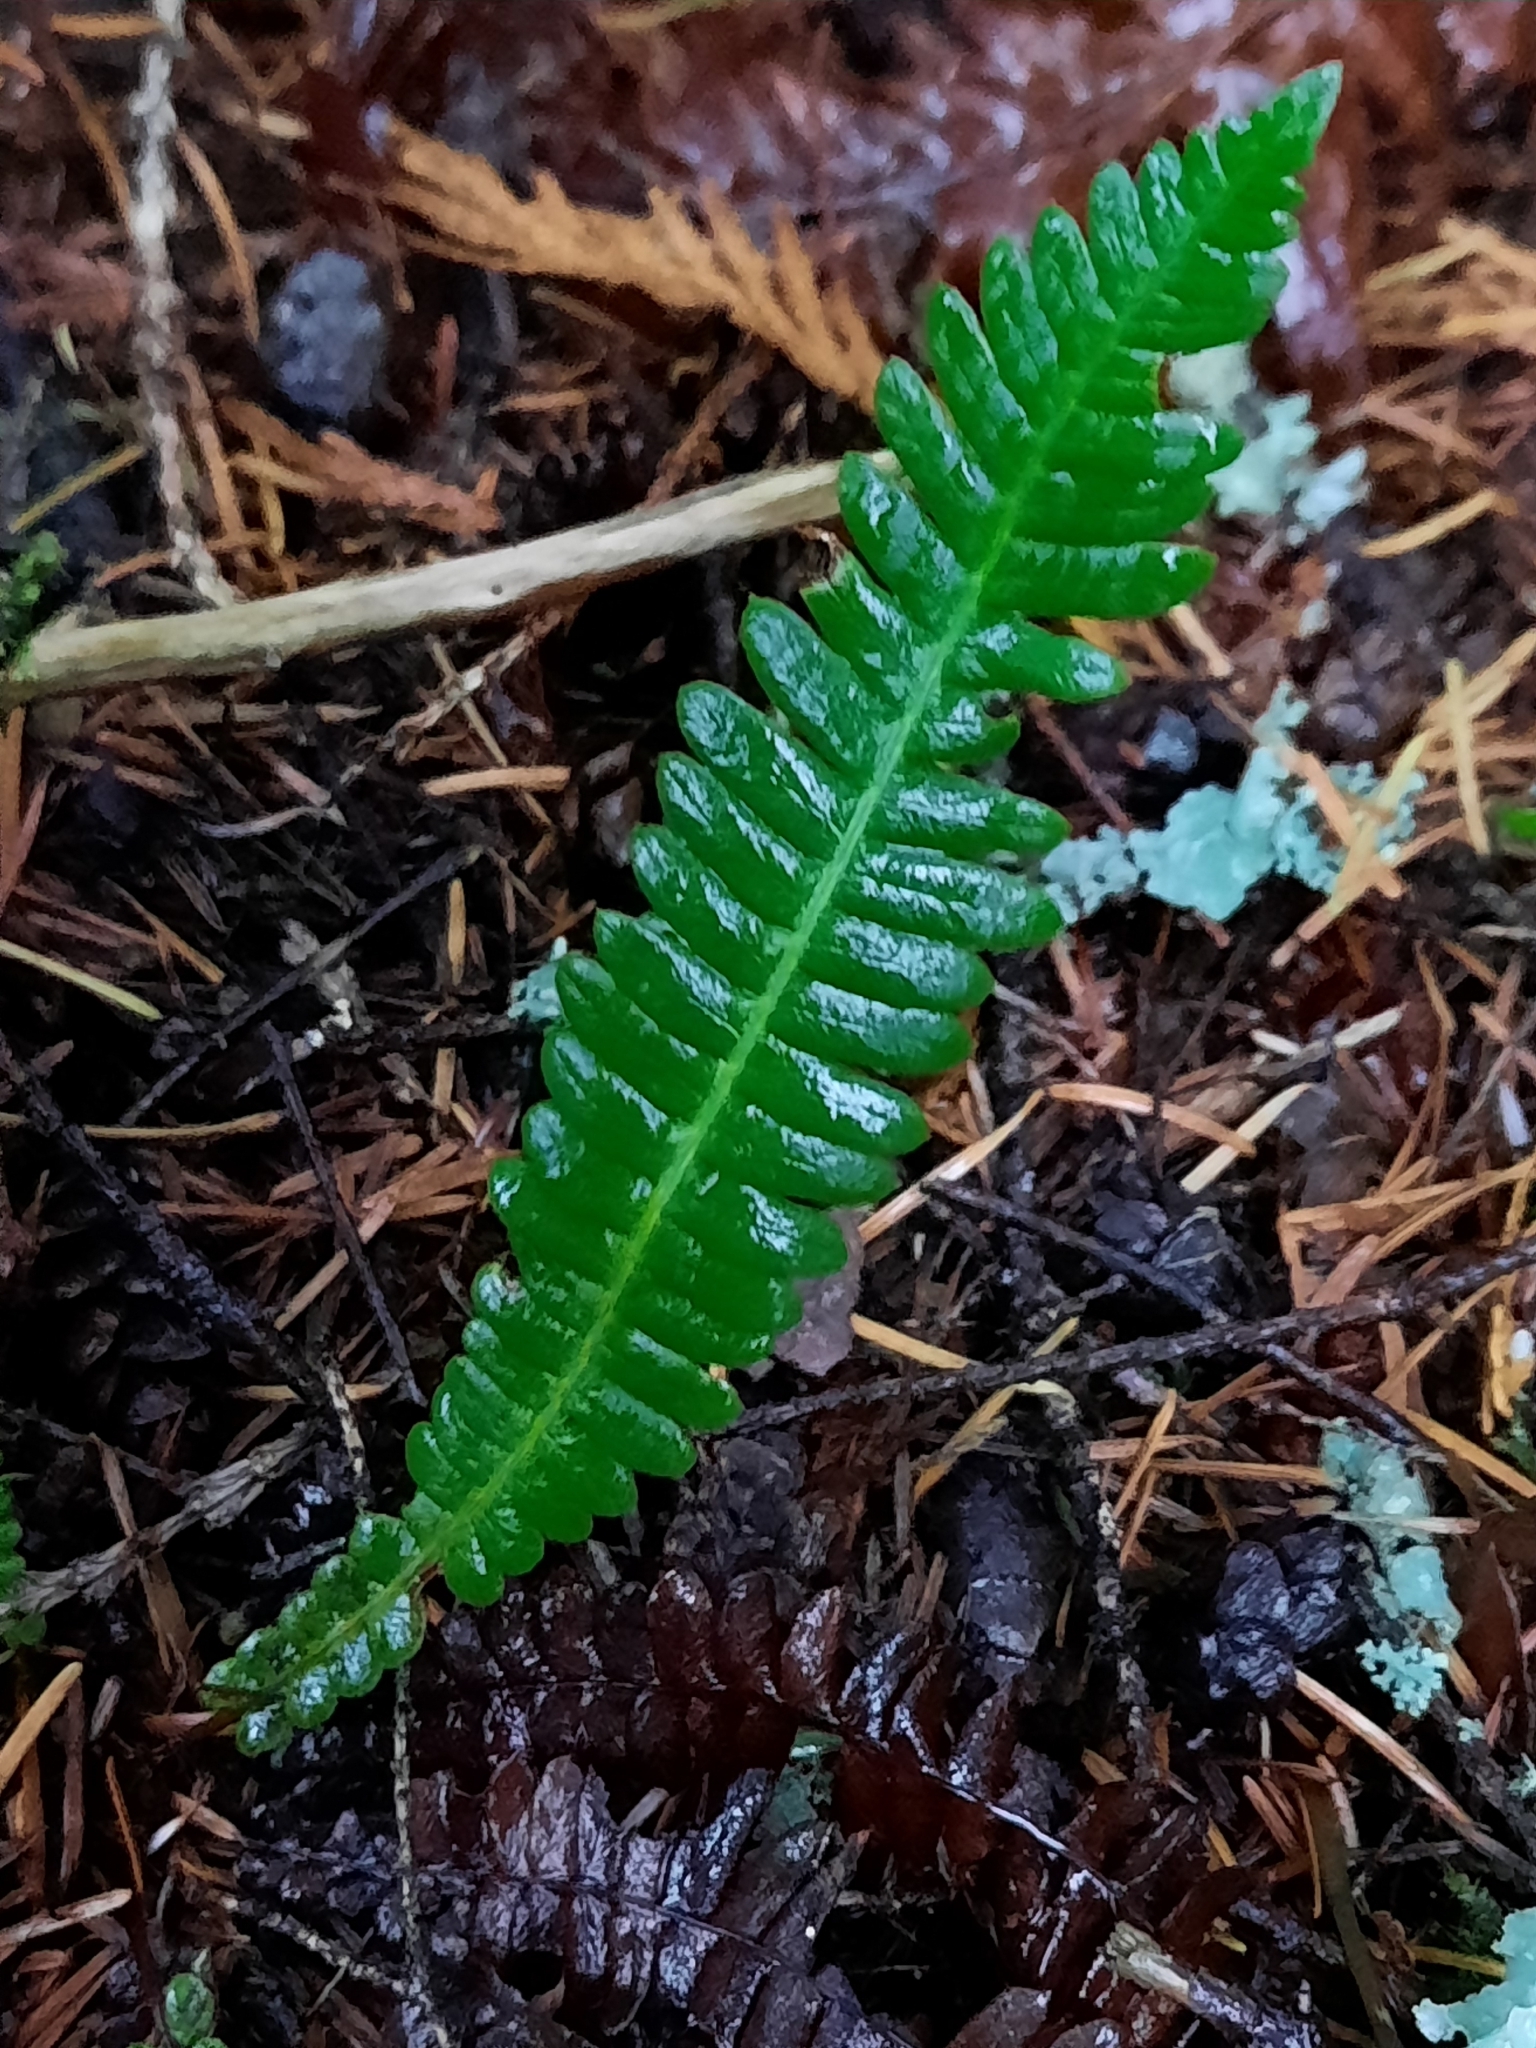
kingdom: Plantae
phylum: Tracheophyta
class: Polypodiopsida
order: Polypodiales
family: Blechnaceae
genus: Struthiopteris
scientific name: Struthiopteris spicant
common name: Deer fern
